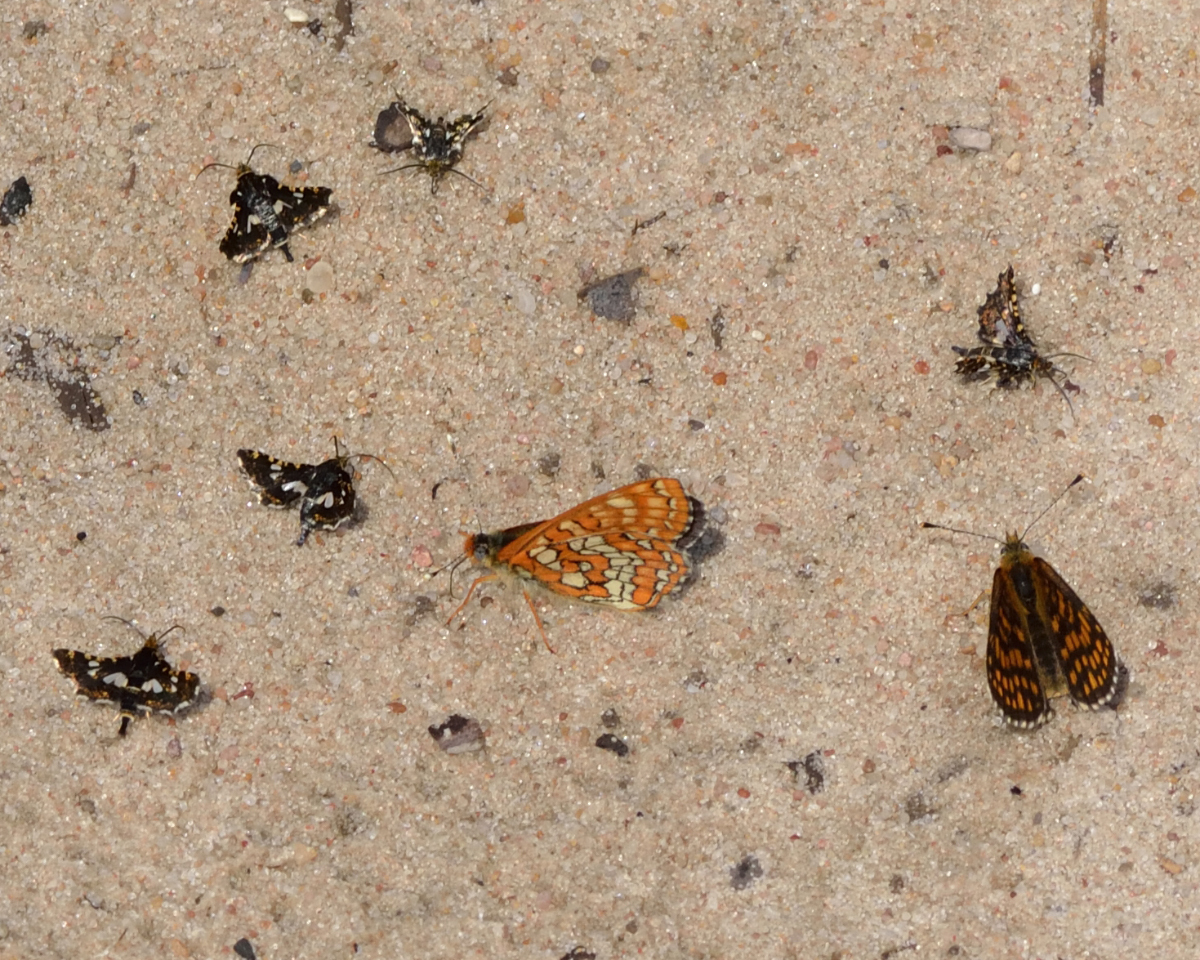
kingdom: Animalia
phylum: Arthropoda
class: Insecta
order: Lepidoptera
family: Thyrididae
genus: Thyris
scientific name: Thyris fenestrella
